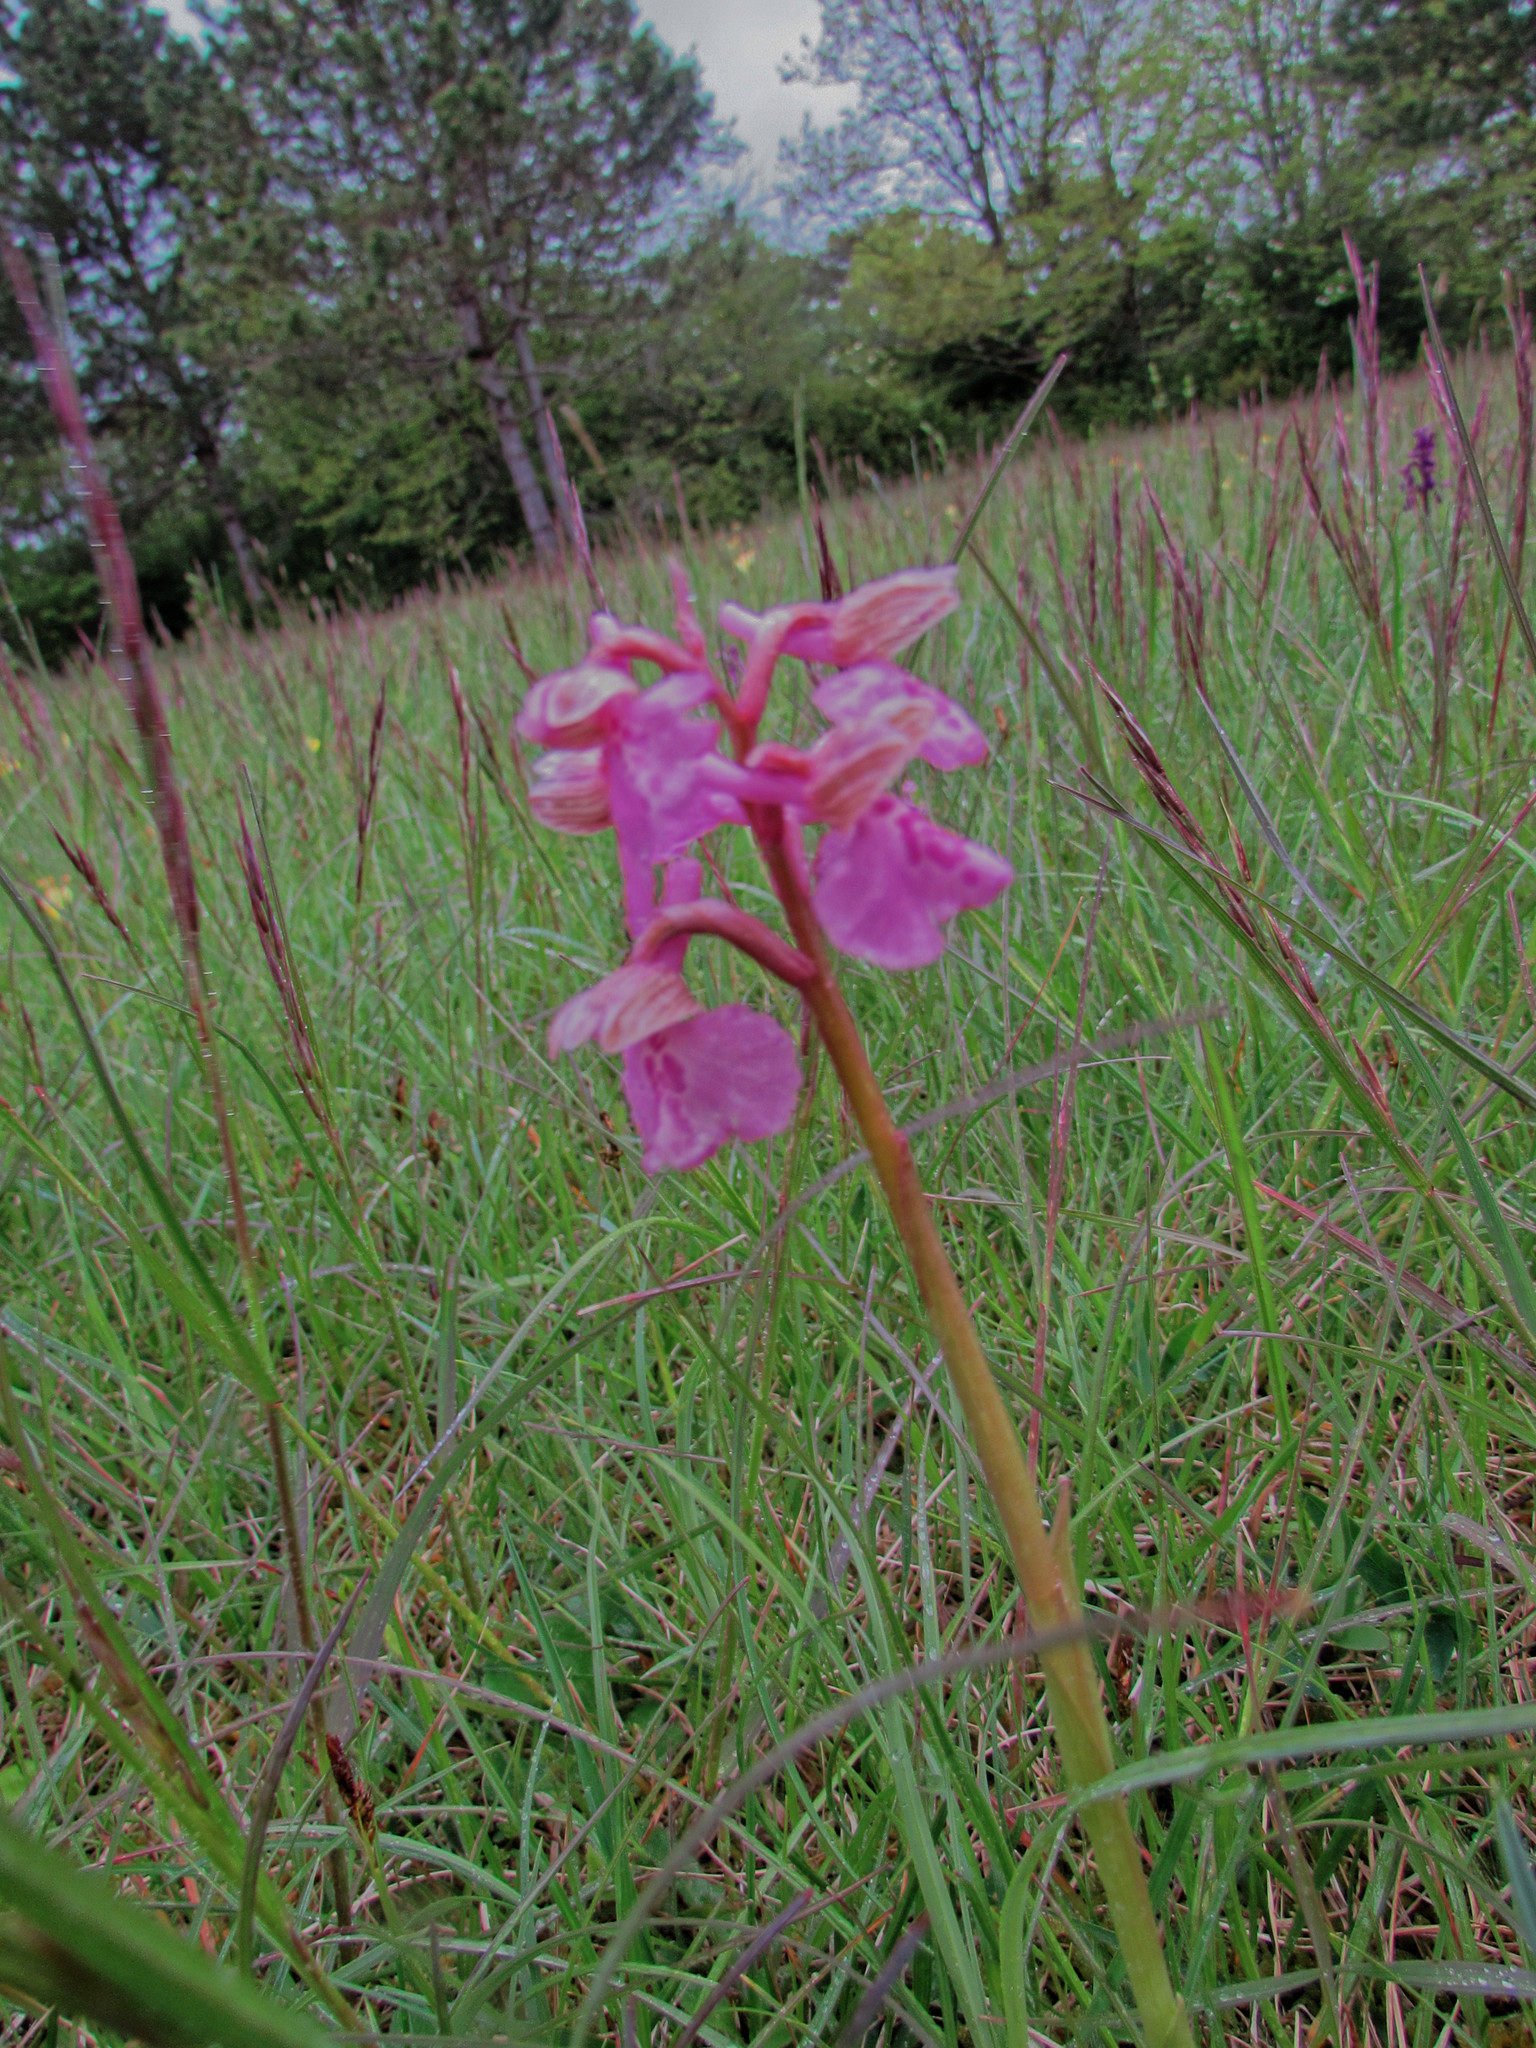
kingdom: Plantae
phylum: Tracheophyta
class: Liliopsida
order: Asparagales
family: Orchidaceae
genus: Anacamptis
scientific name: Anacamptis morio
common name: Green-winged orchid
